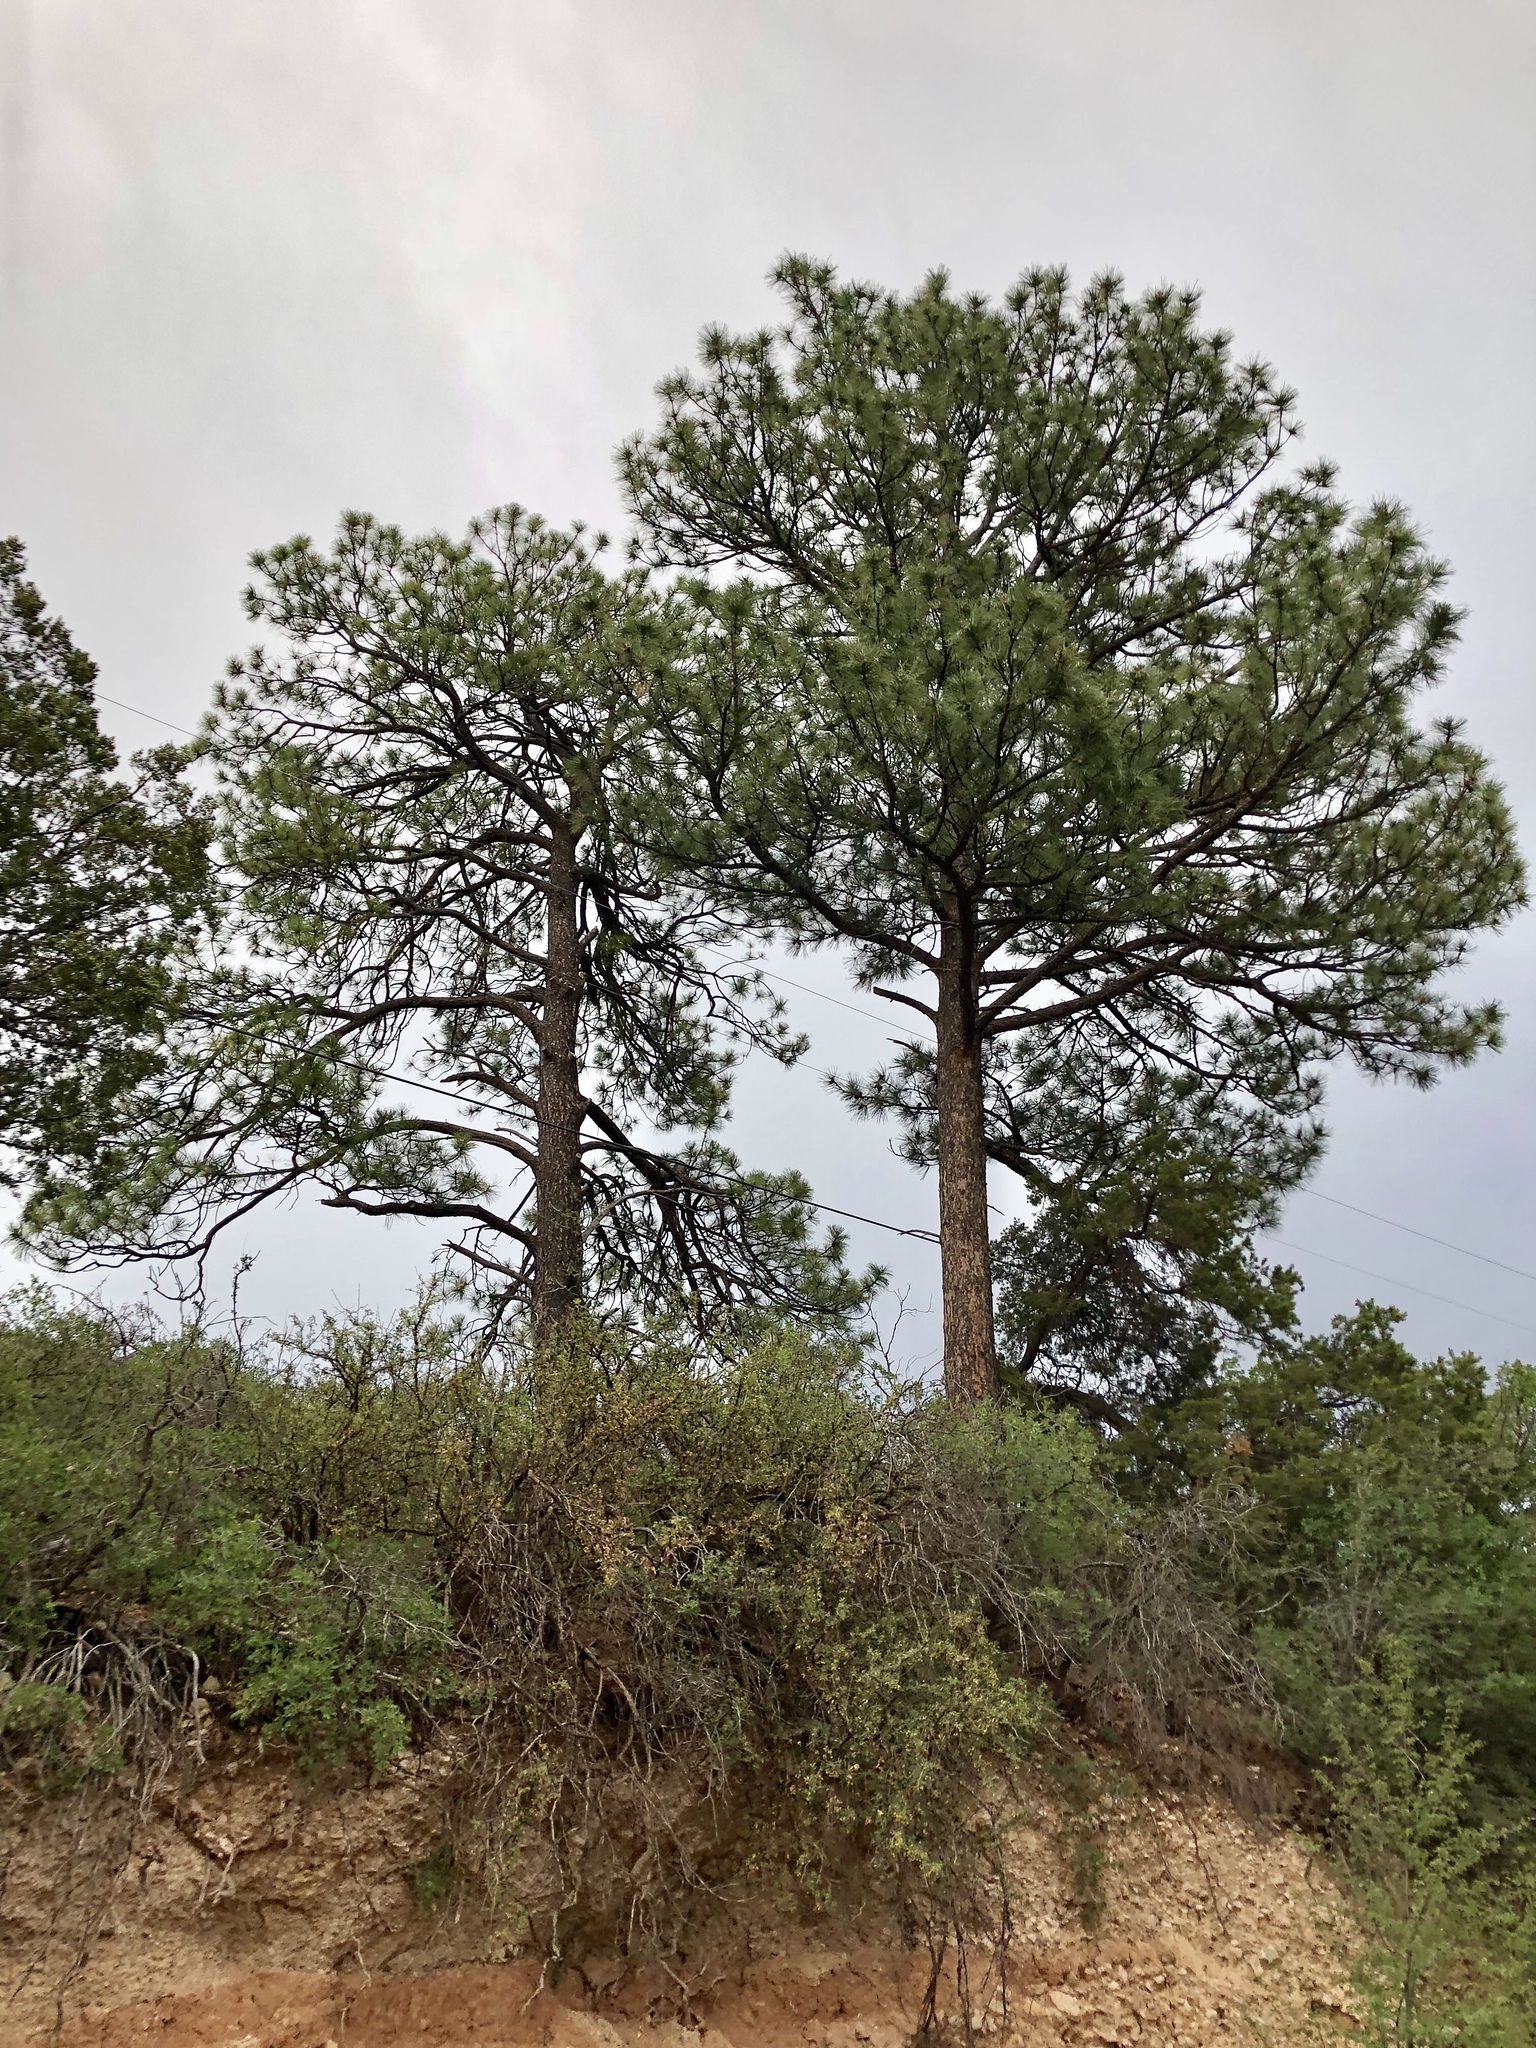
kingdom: Plantae
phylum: Tracheophyta
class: Pinopsida
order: Pinales
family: Pinaceae
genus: Pinus
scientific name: Pinus ponderosa
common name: Western yellow-pine
